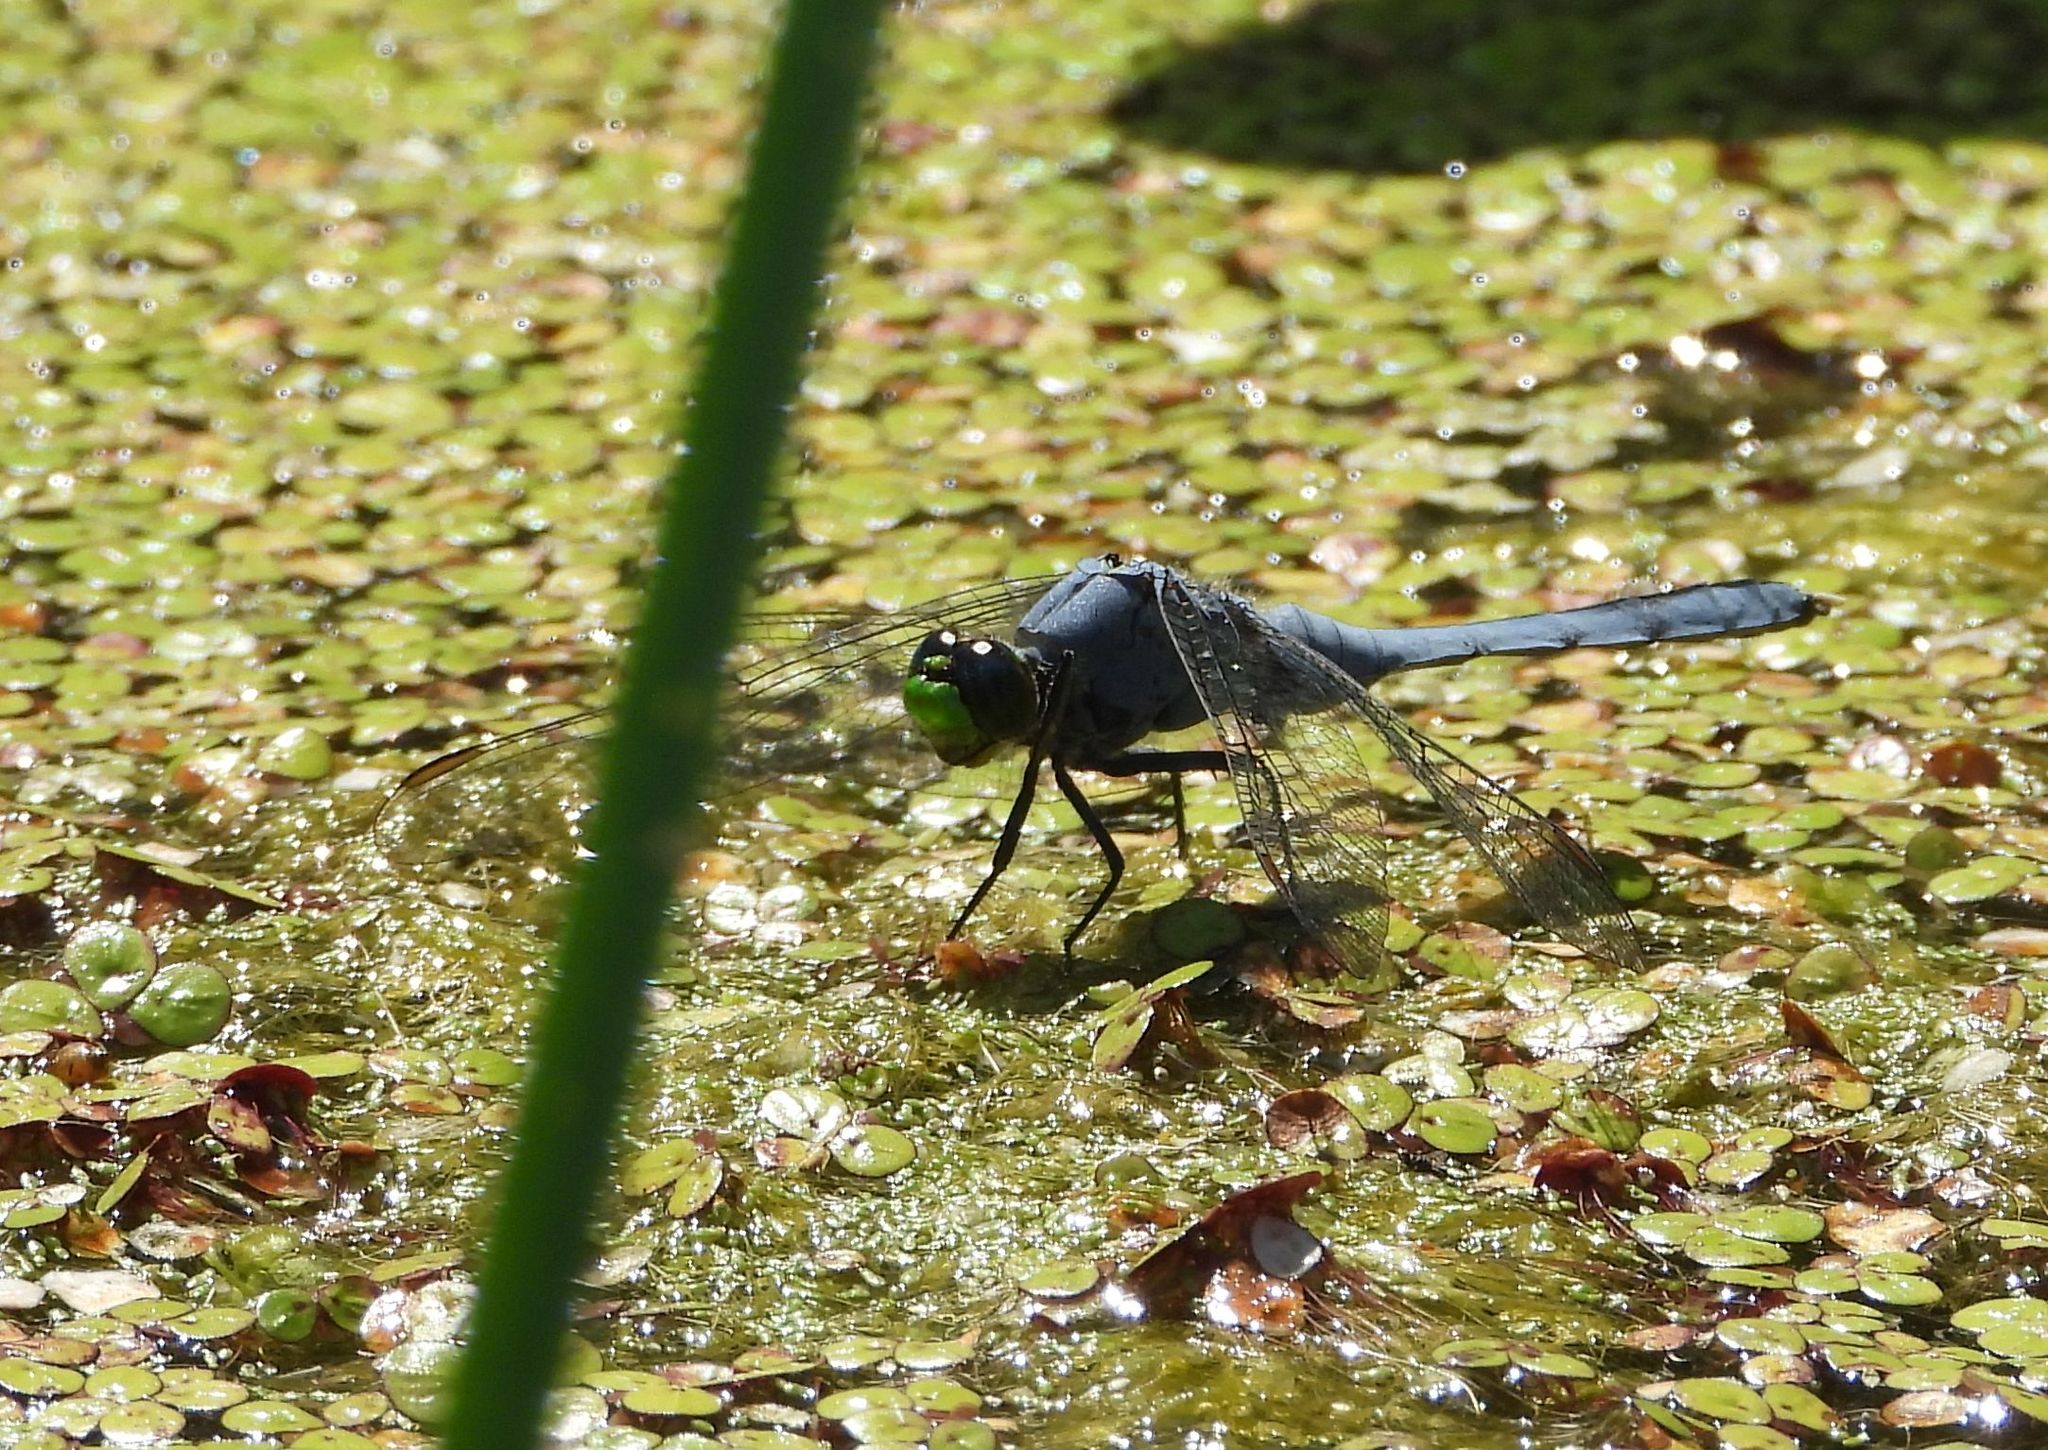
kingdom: Animalia
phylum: Arthropoda
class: Insecta
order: Odonata
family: Libellulidae
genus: Erythemis
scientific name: Erythemis simplicicollis
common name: Eastern pondhawk
